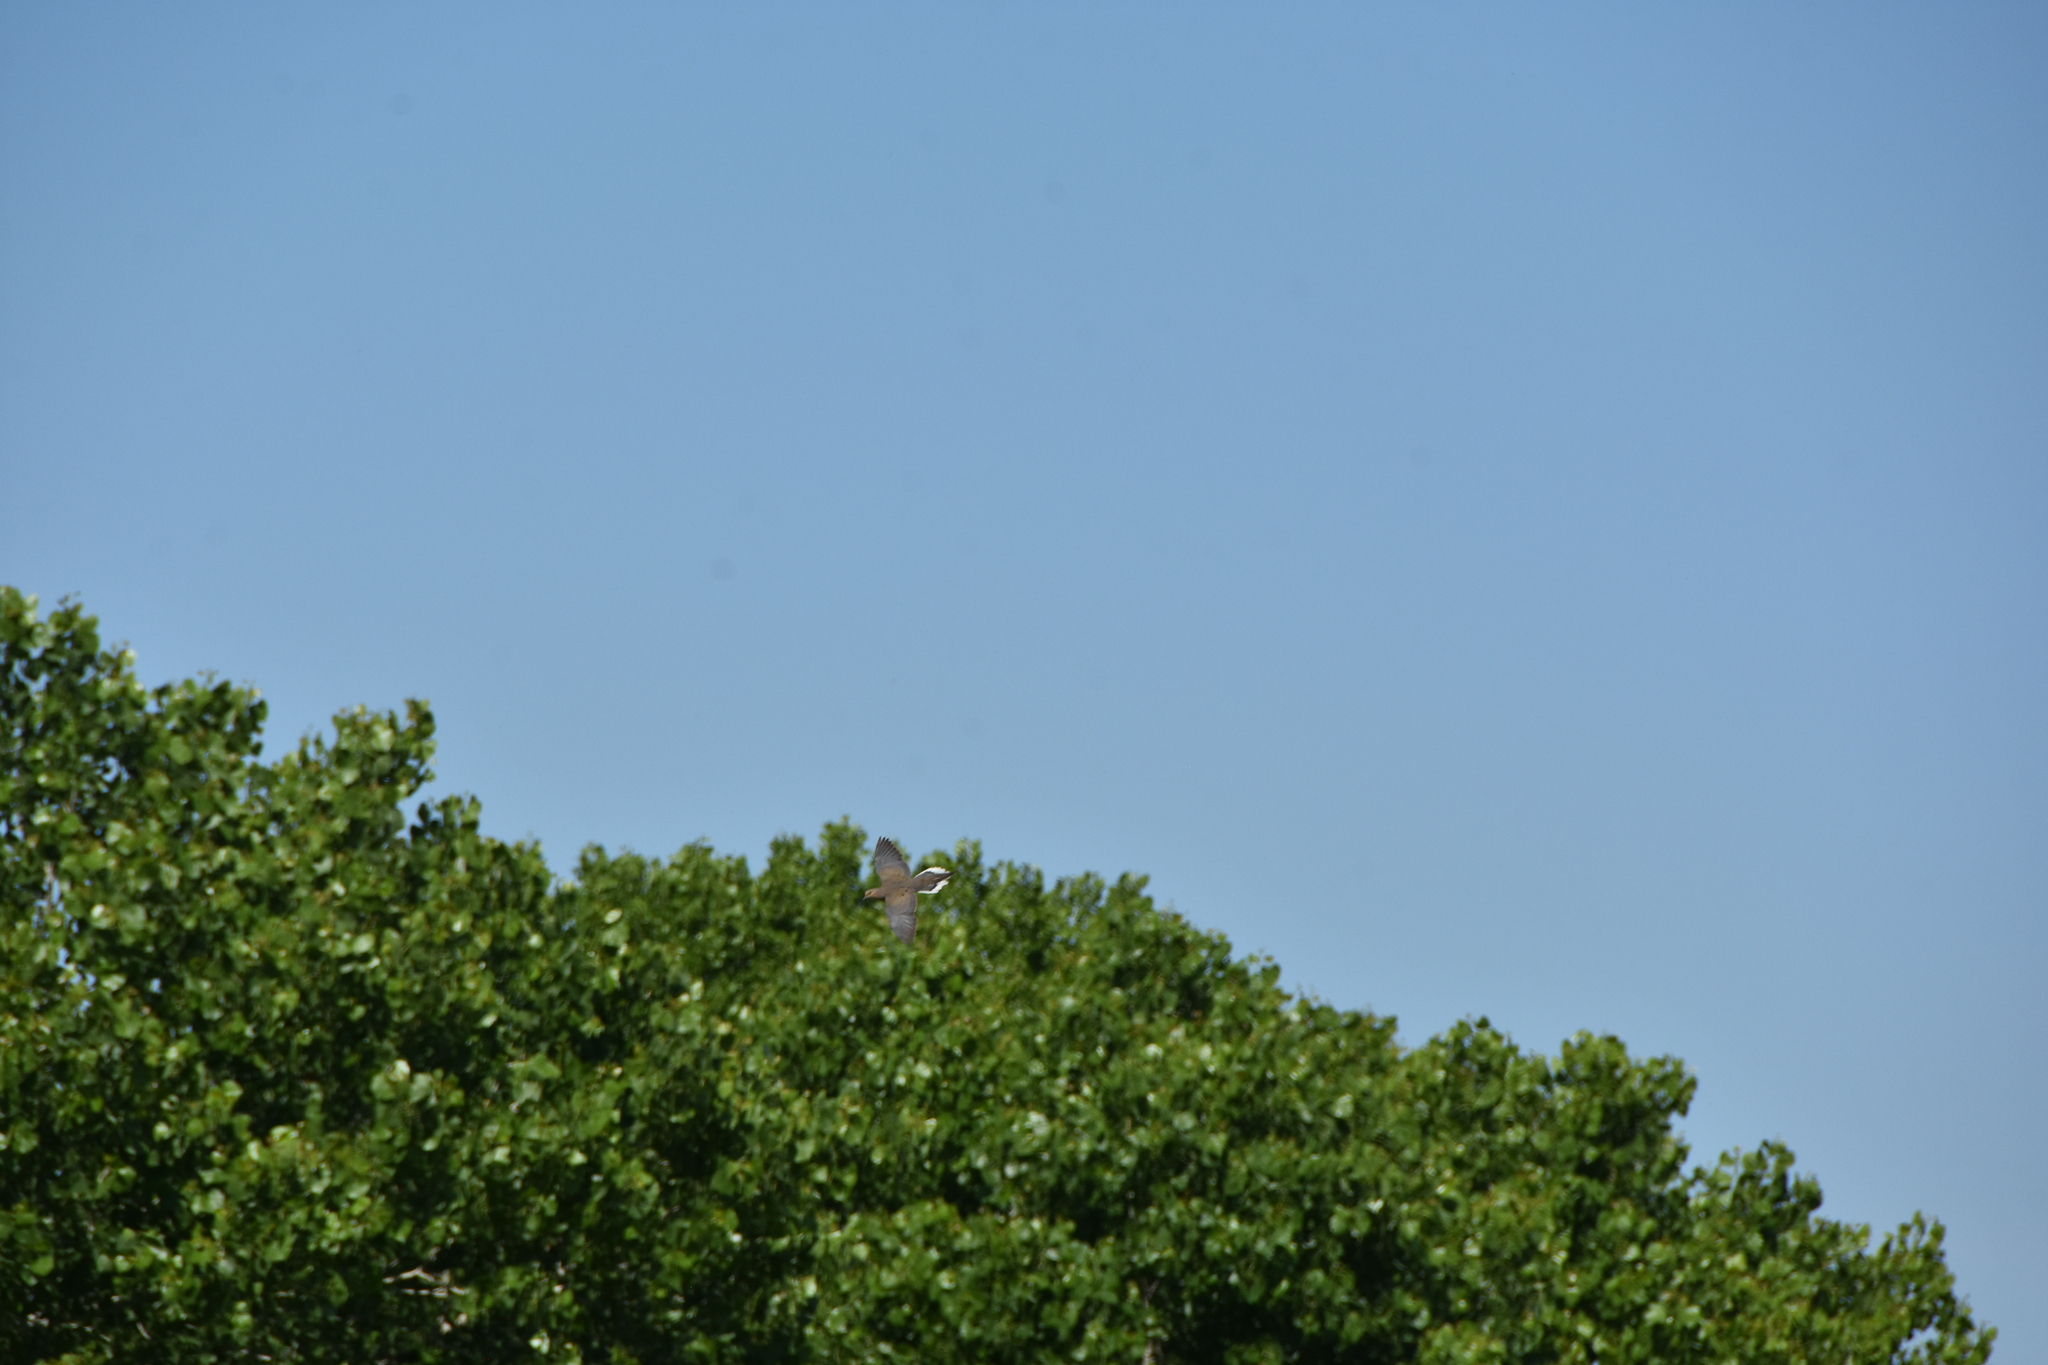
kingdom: Animalia
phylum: Chordata
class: Aves
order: Columbiformes
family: Columbidae
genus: Zenaida
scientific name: Zenaida macroura
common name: Mourning dove
